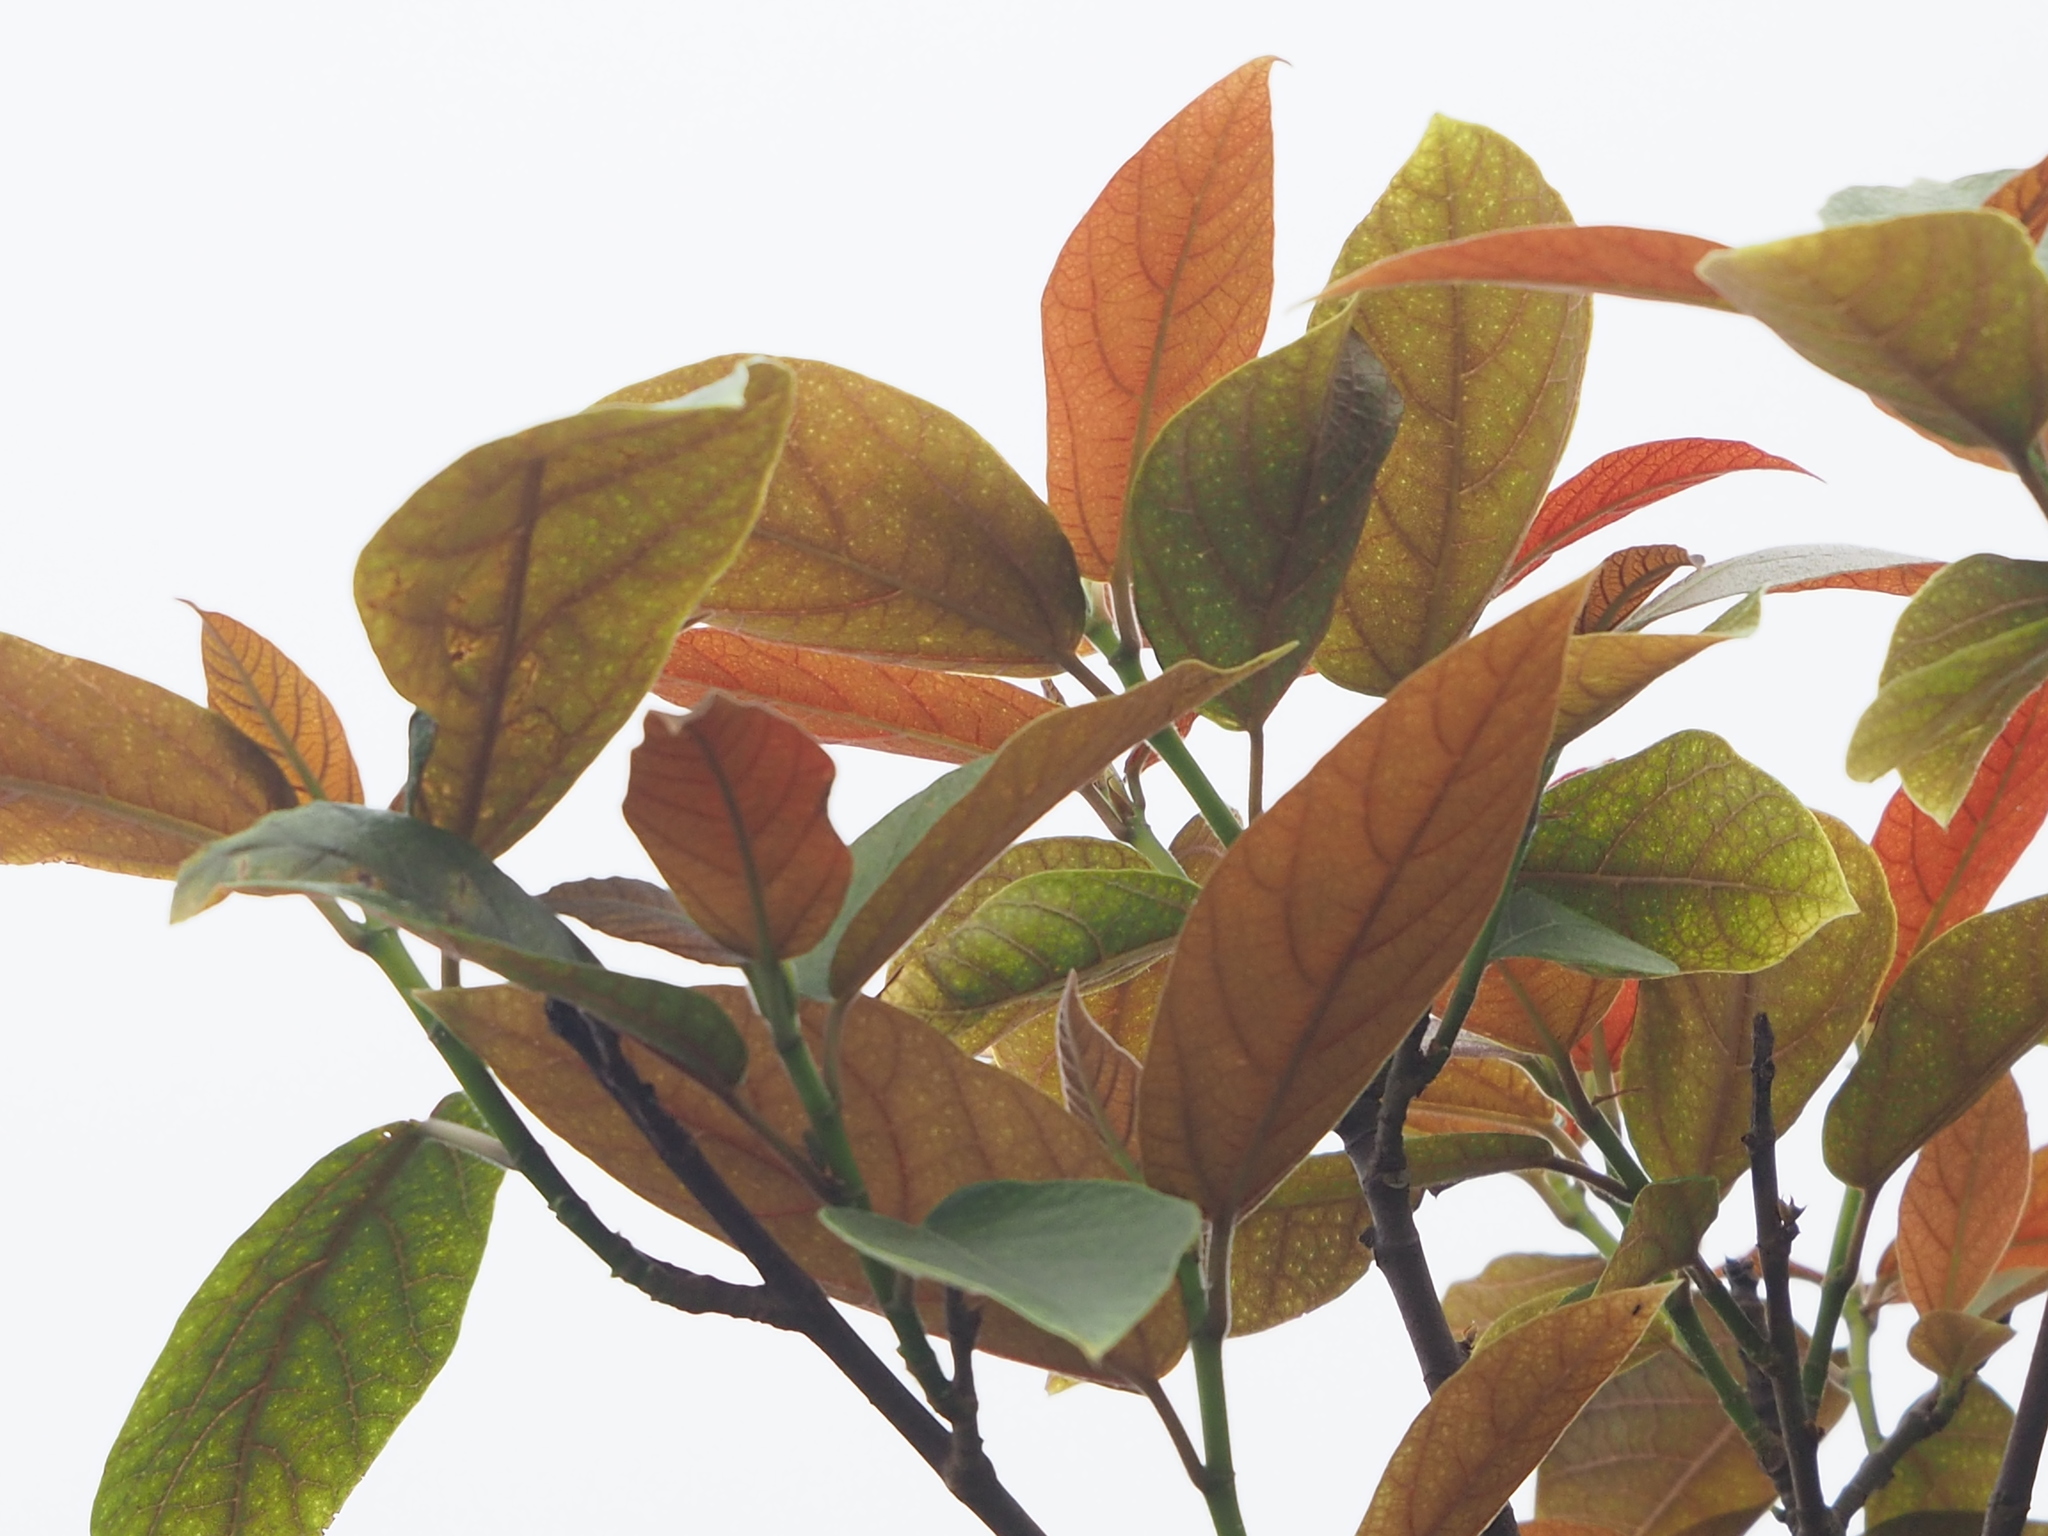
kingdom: Plantae
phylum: Tracheophyta
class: Magnoliopsida
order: Rosales
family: Moraceae
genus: Ficus
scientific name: Ficus erecta
